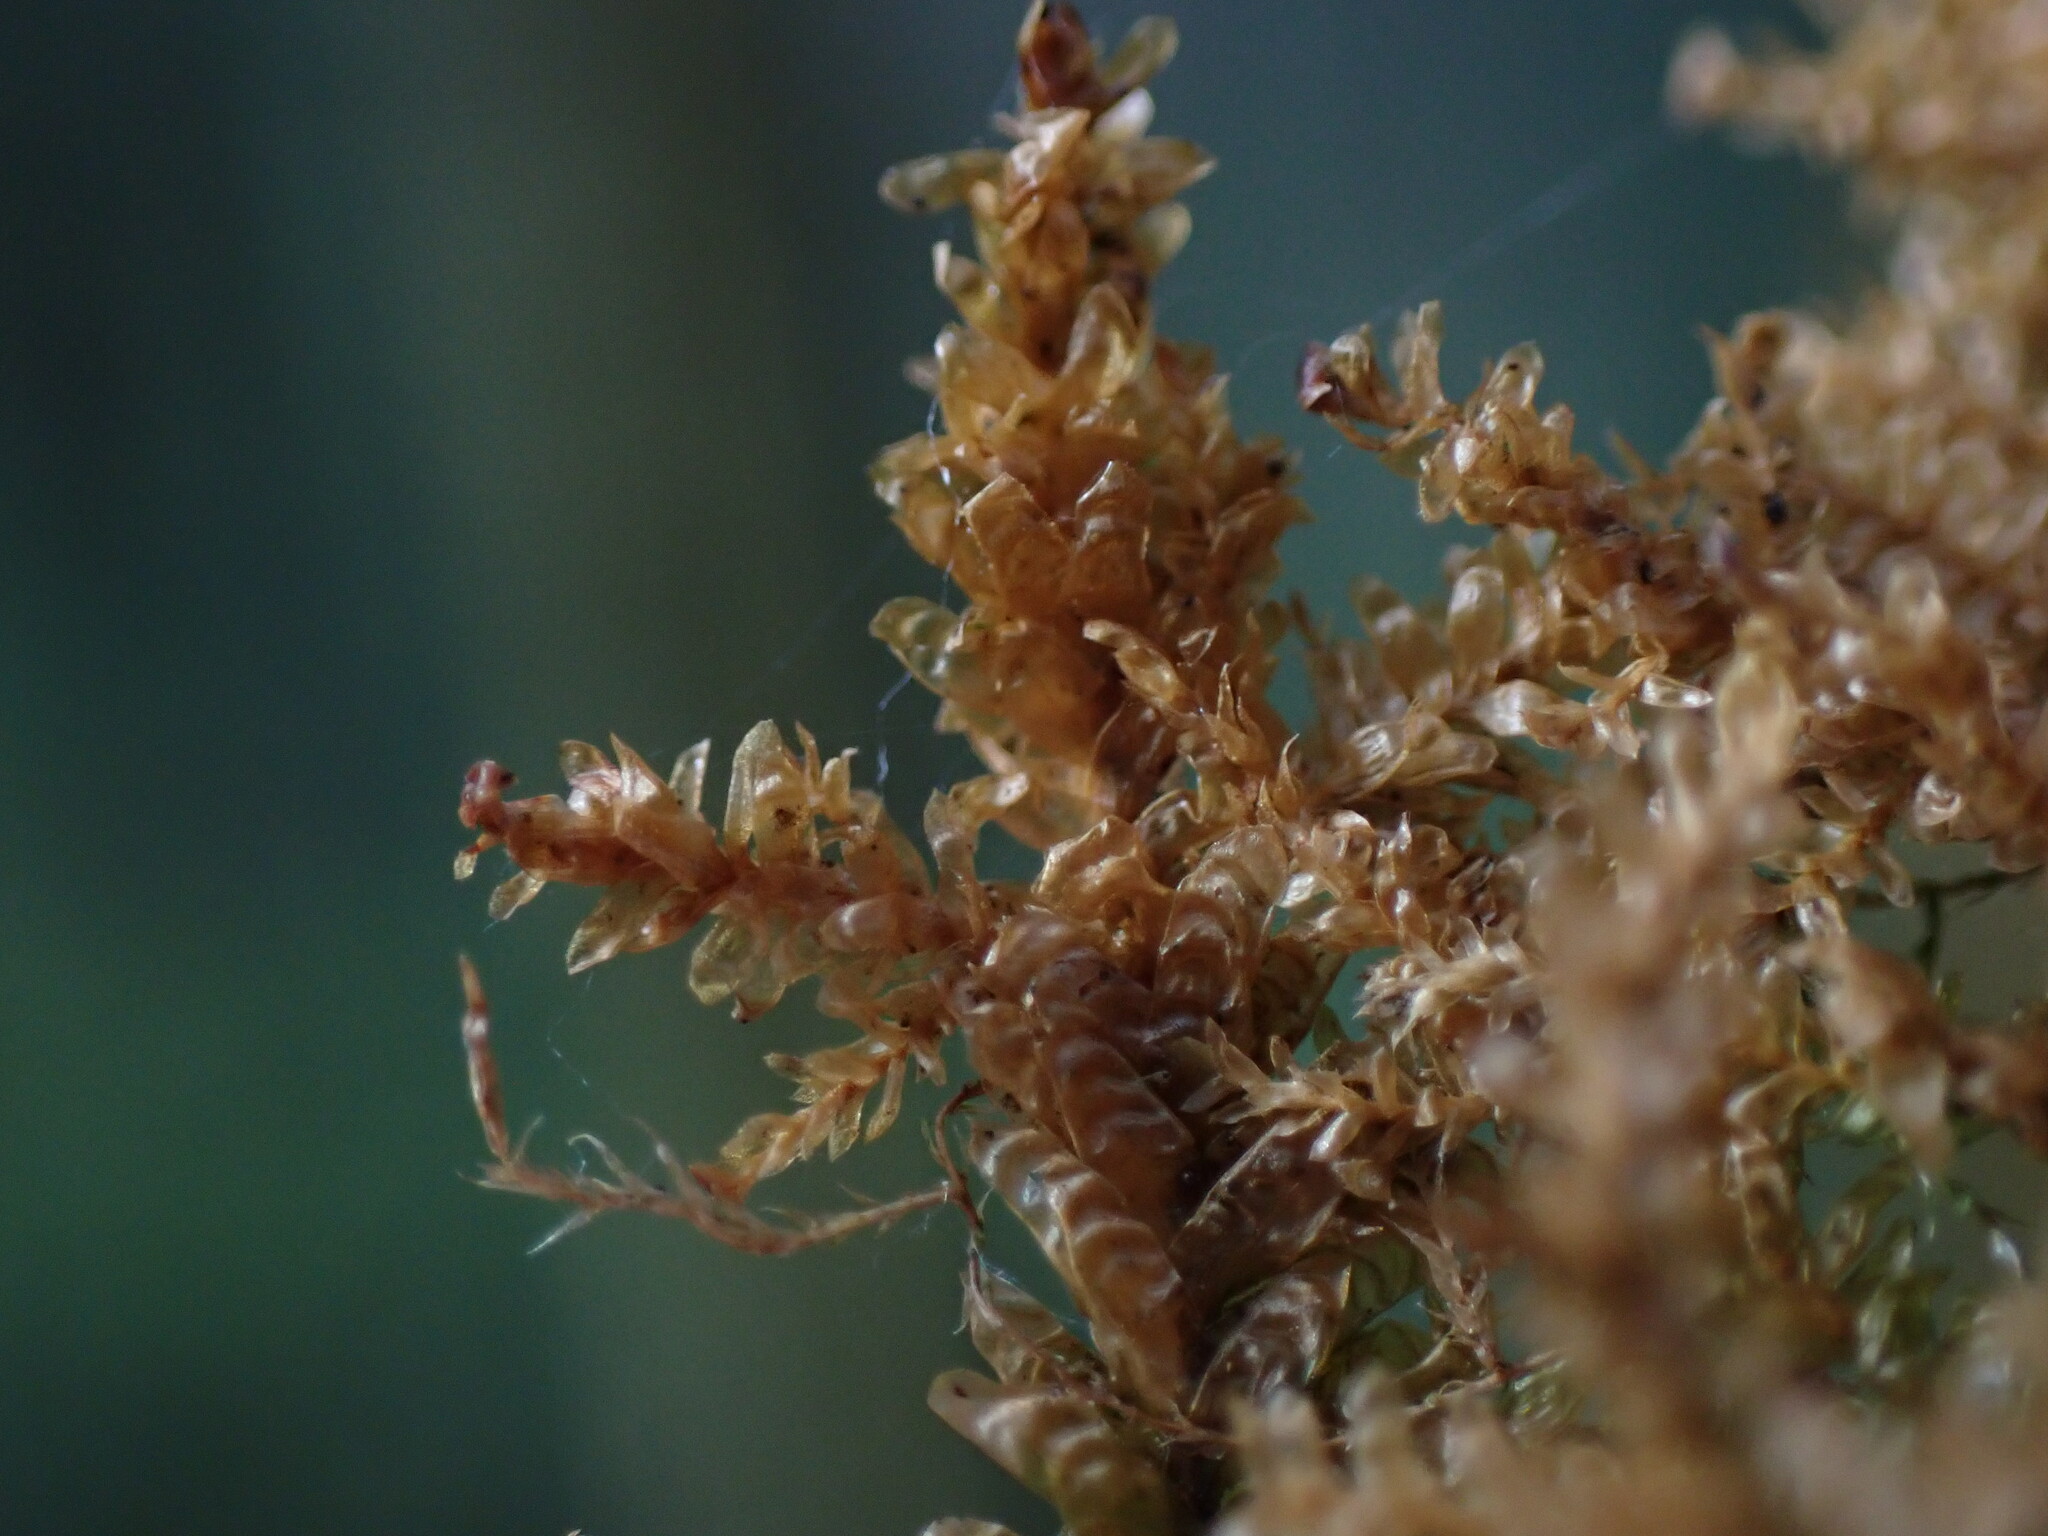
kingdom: Plantae
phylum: Bryophyta
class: Bryopsida
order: Hypnales
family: Neckeraceae
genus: Metaneckera
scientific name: Metaneckera menziesii
